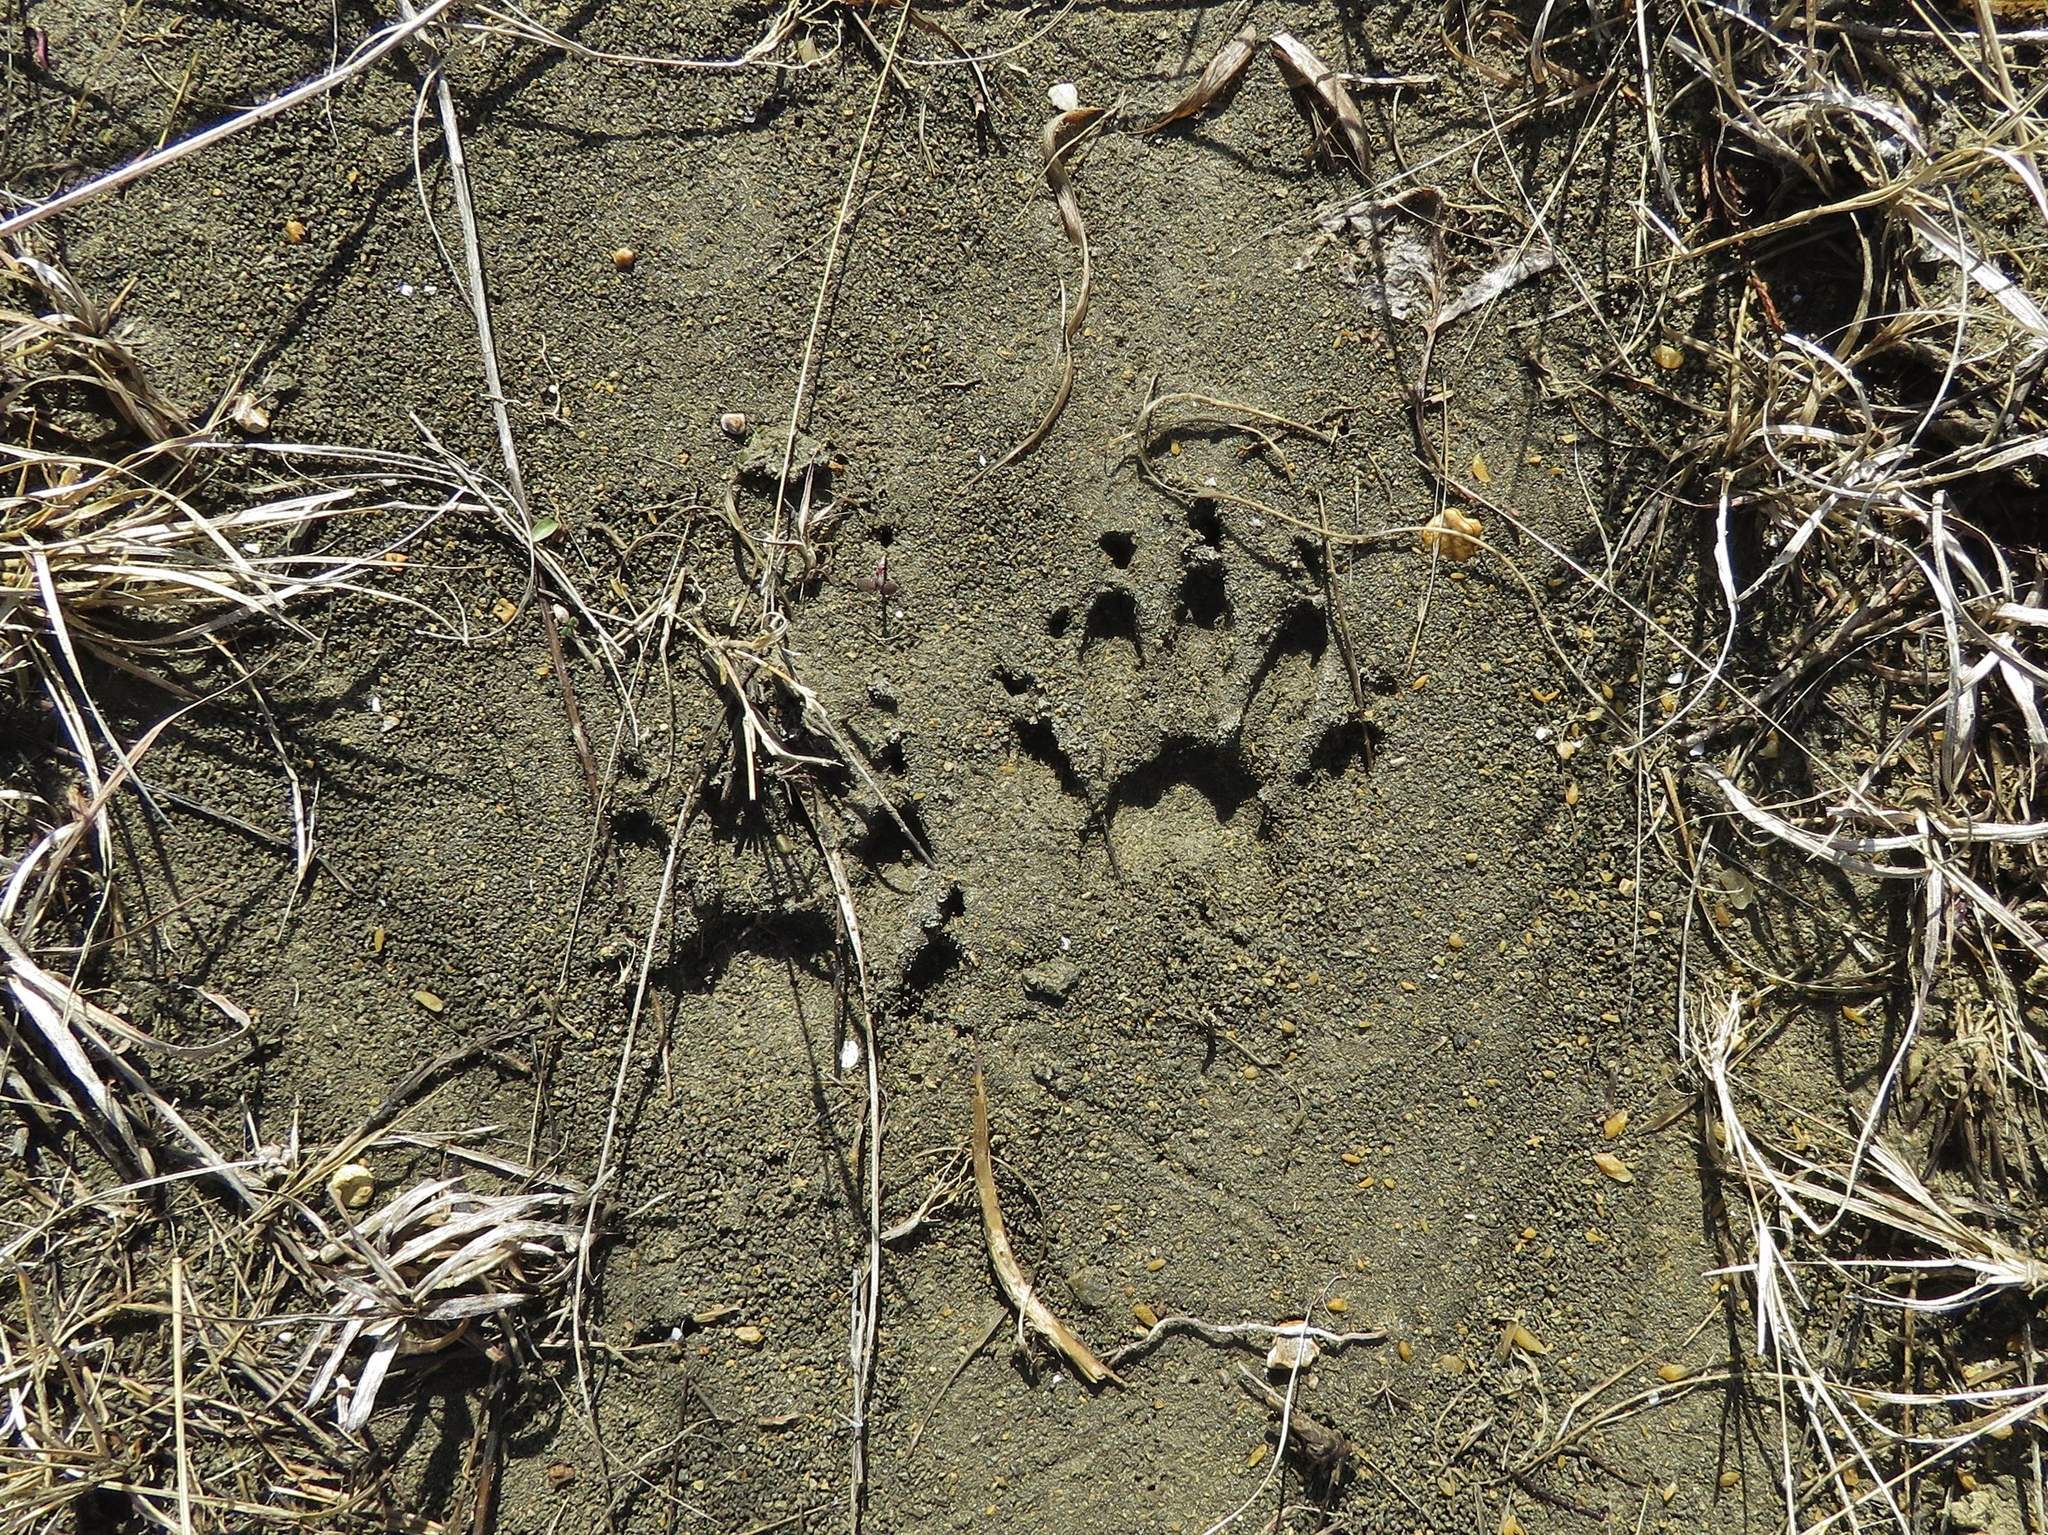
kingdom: Animalia
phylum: Chordata
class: Mammalia
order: Carnivora
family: Procyonidae
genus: Procyon
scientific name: Procyon lotor
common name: Raccoon
